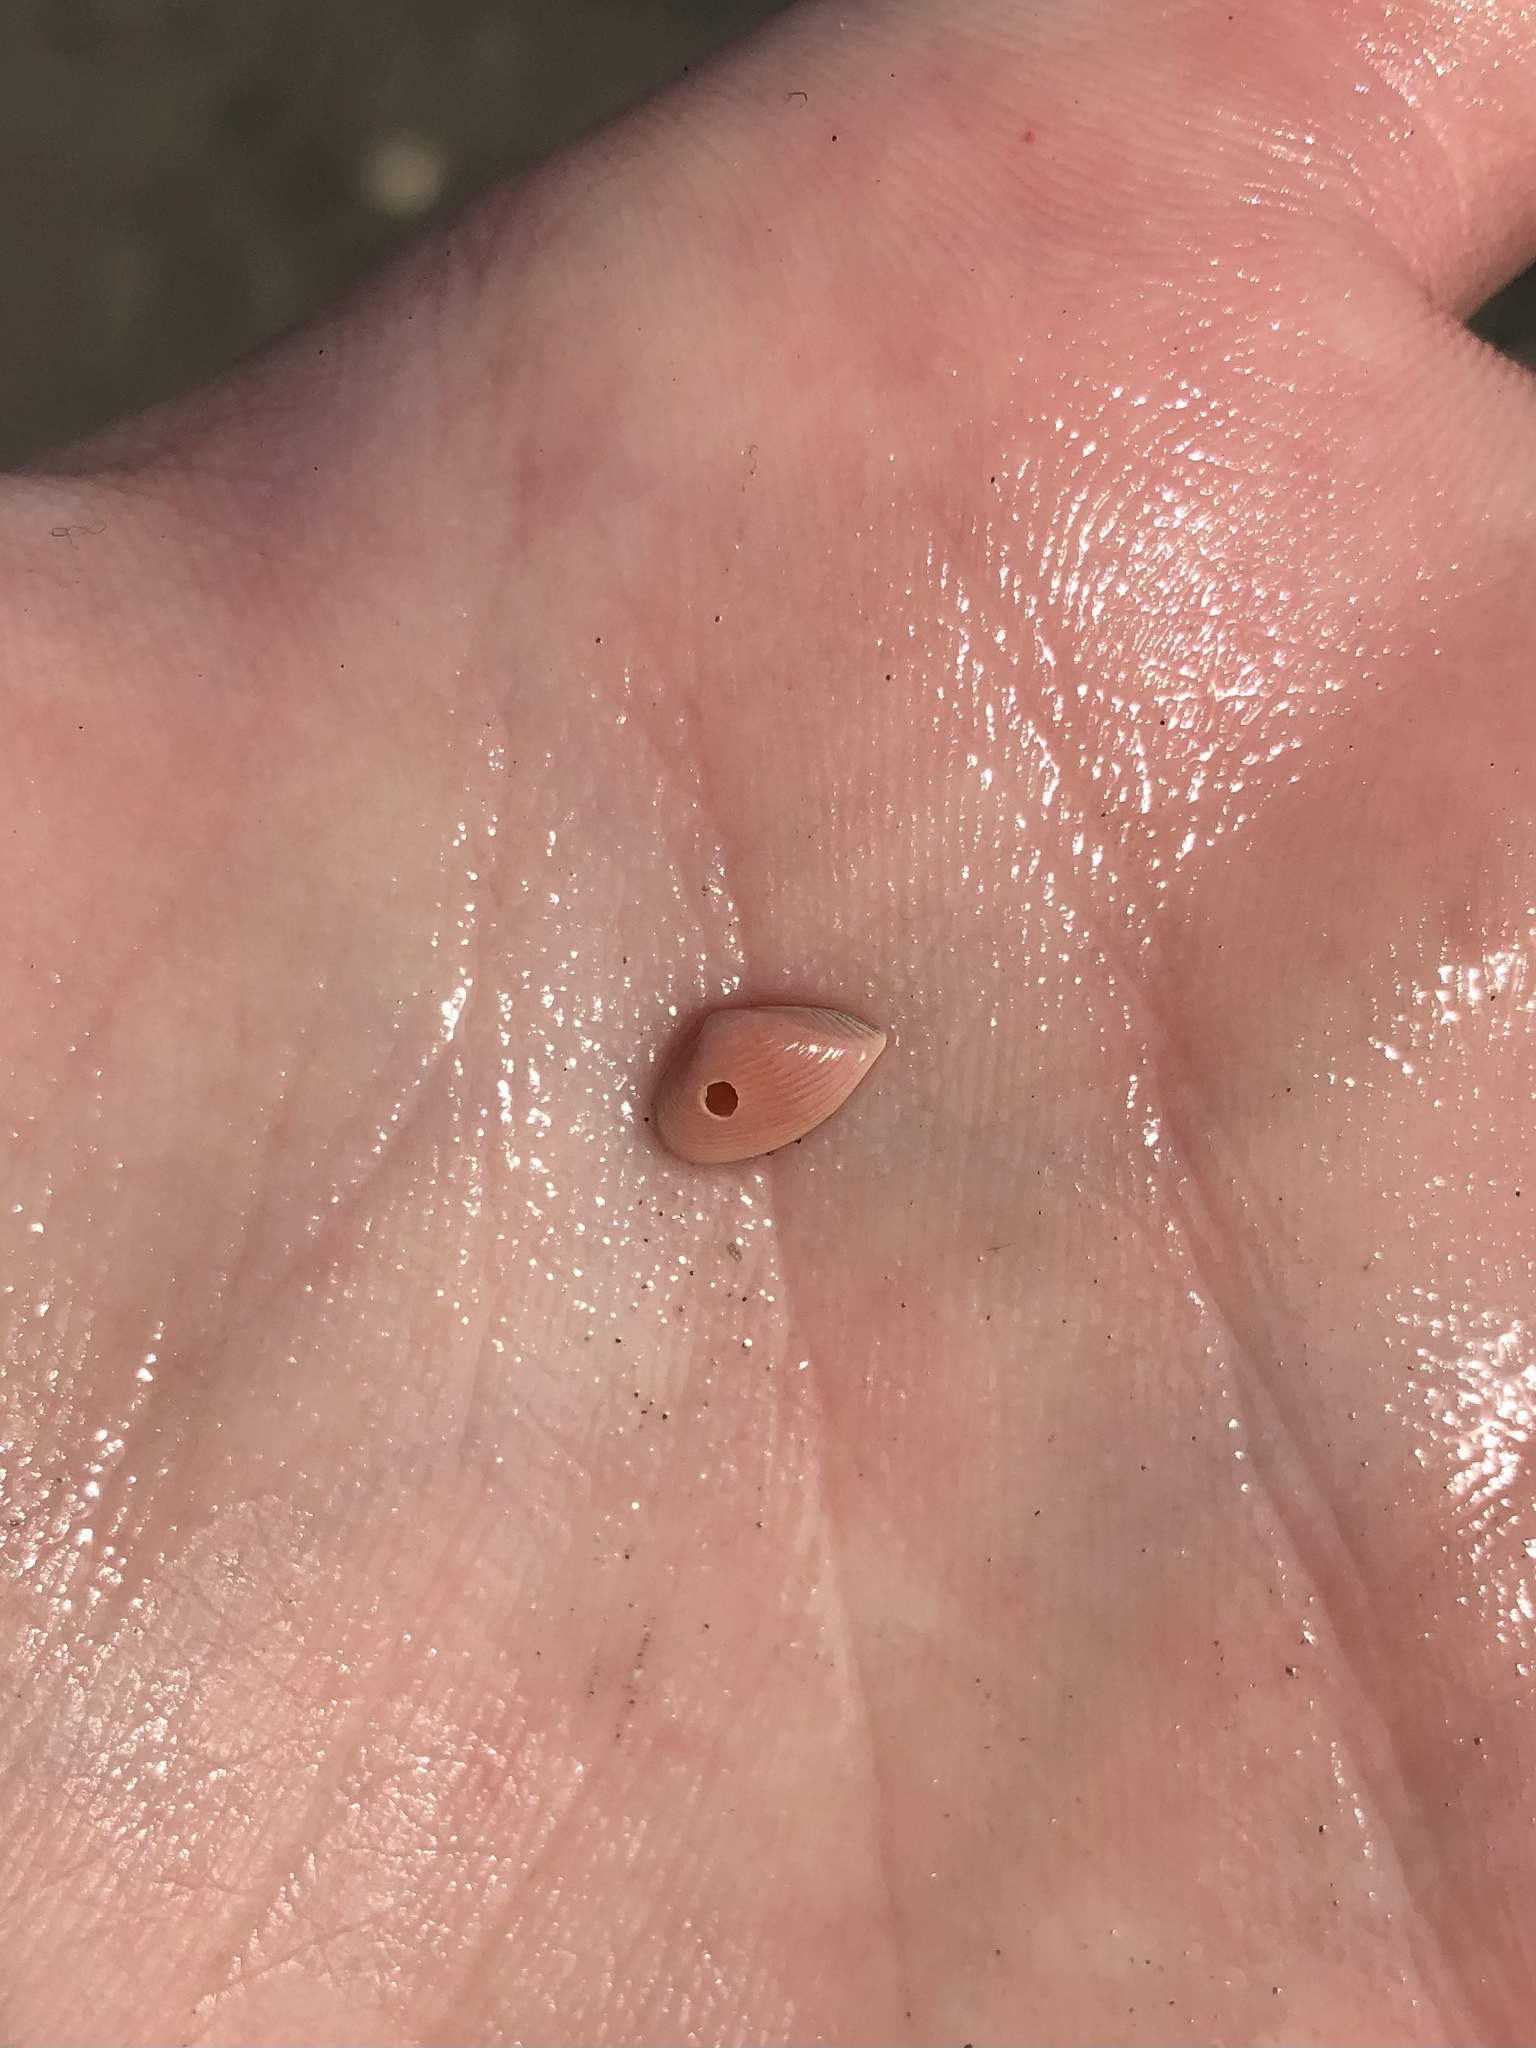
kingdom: Animalia
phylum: Mollusca
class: Bivalvia
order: Myida
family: Corbulidae
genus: Corbula
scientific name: Corbula dietziana
